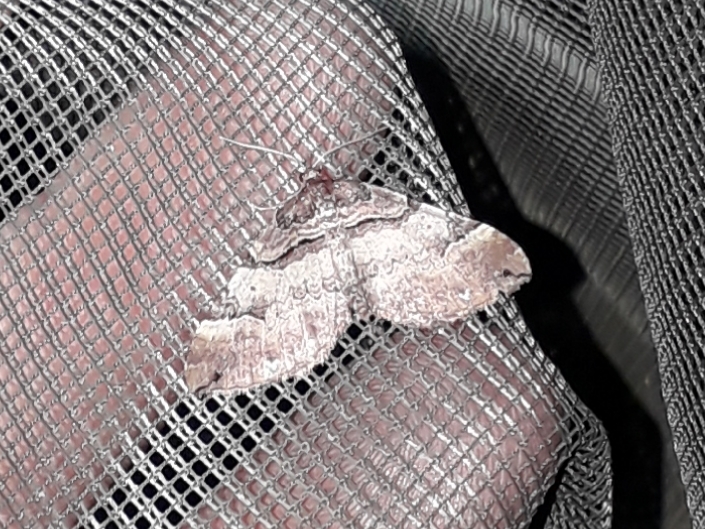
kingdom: Animalia
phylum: Arthropoda
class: Insecta
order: Lepidoptera
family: Geometridae
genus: Anticlea
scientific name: Anticlea badiata
